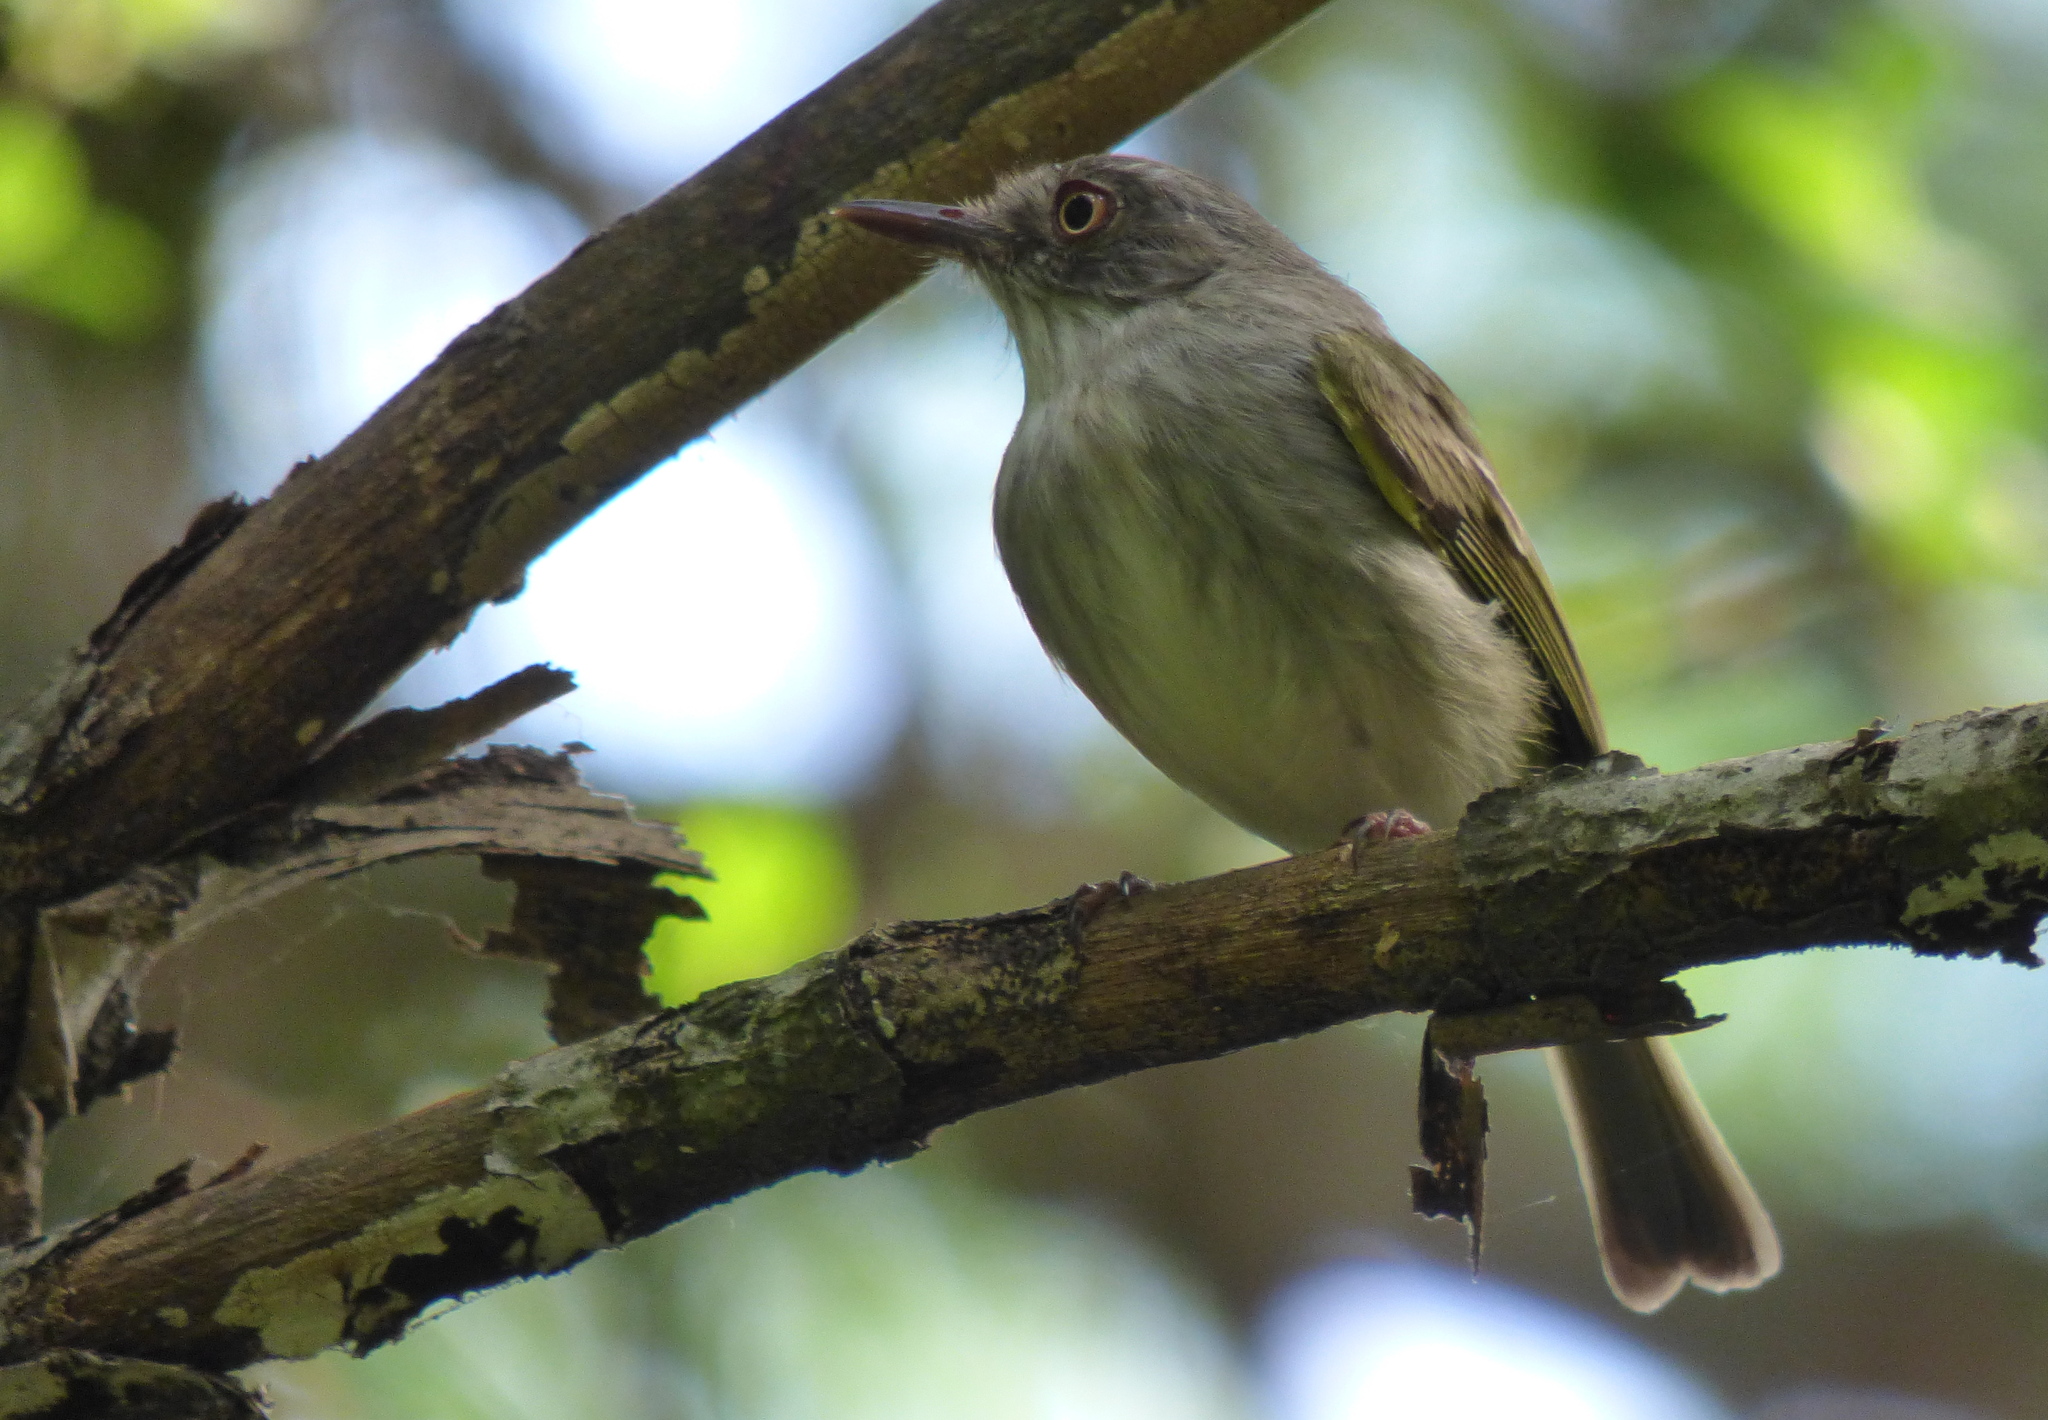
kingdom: Animalia
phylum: Chordata
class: Aves
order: Passeriformes
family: Tyrannidae
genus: Hemitriccus
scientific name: Hemitriccus margaritaceiventer
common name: Pearly-vented tody-tyrant
